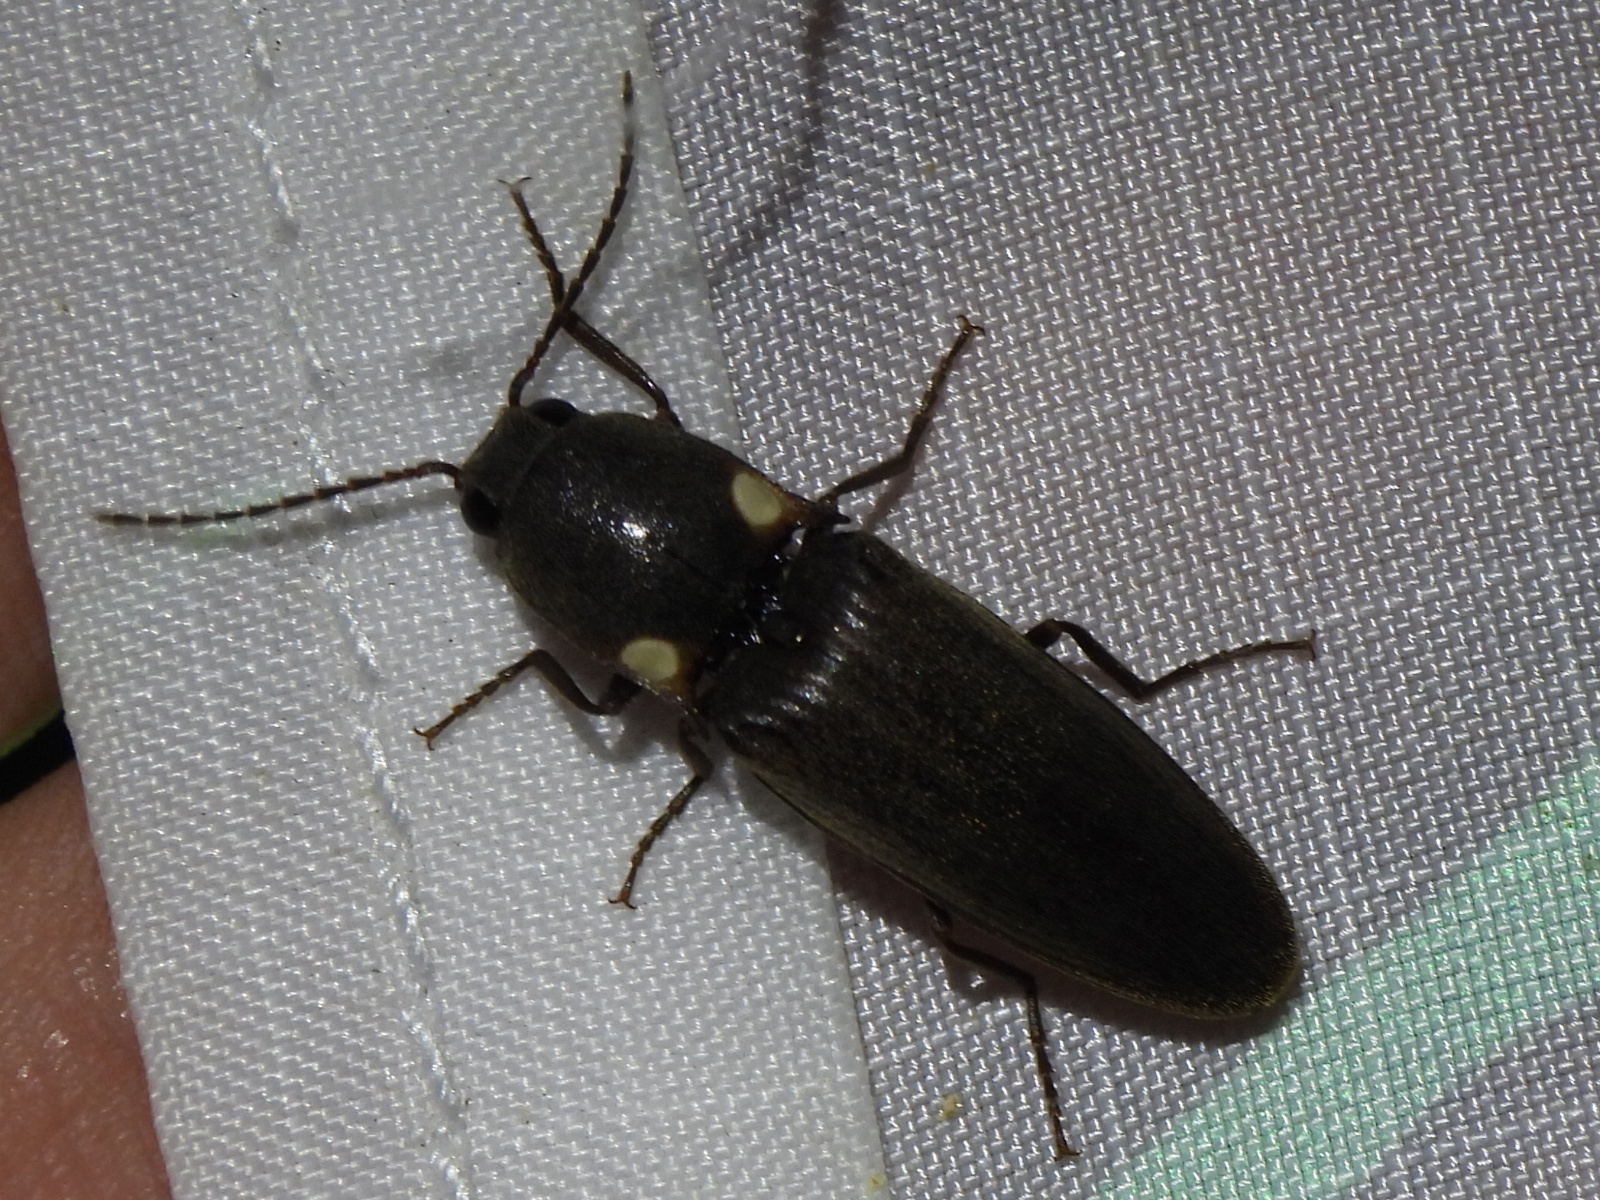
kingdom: Animalia
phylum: Arthropoda
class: Insecta
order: Coleoptera
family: Elateridae
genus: Deilelater
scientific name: Deilelater
